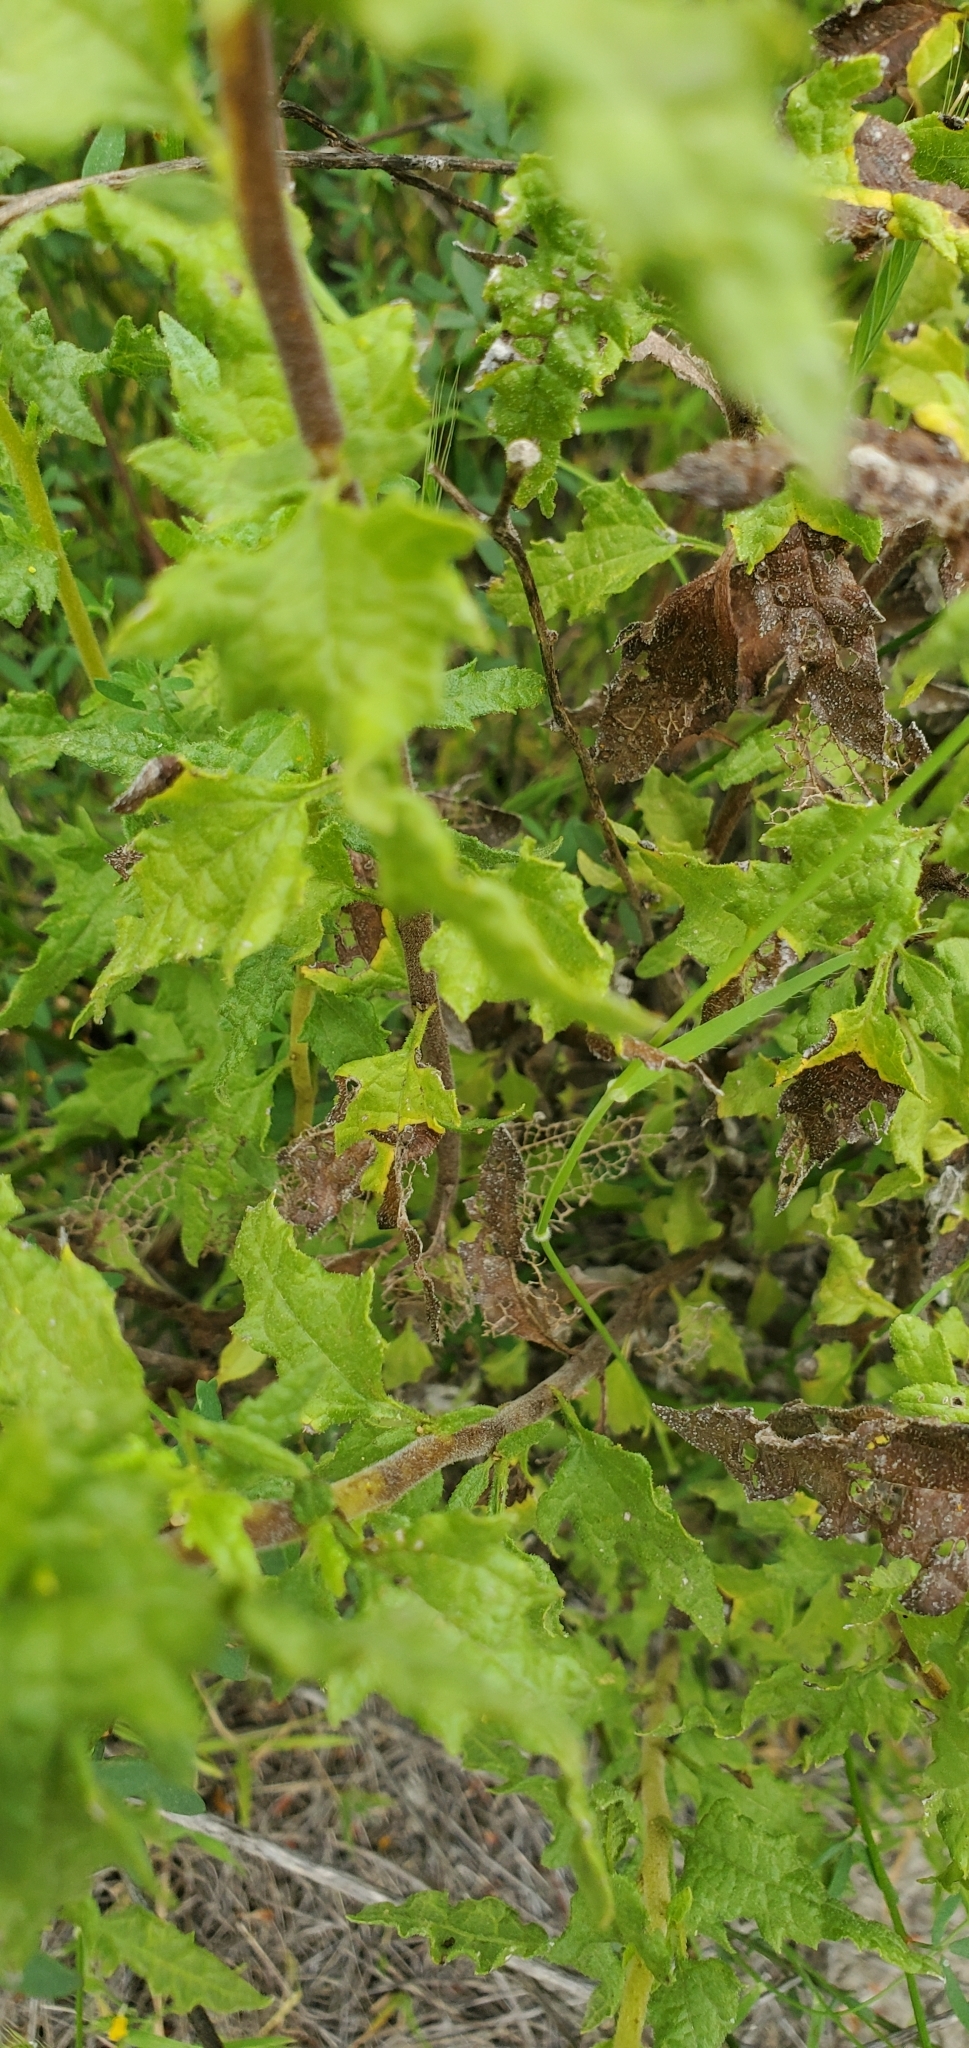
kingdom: Plantae
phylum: Tracheophyta
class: Magnoliopsida
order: Asterales
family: Asteraceae
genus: Bahiopsis
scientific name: Bahiopsis laciniata
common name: San diego county viguiera
